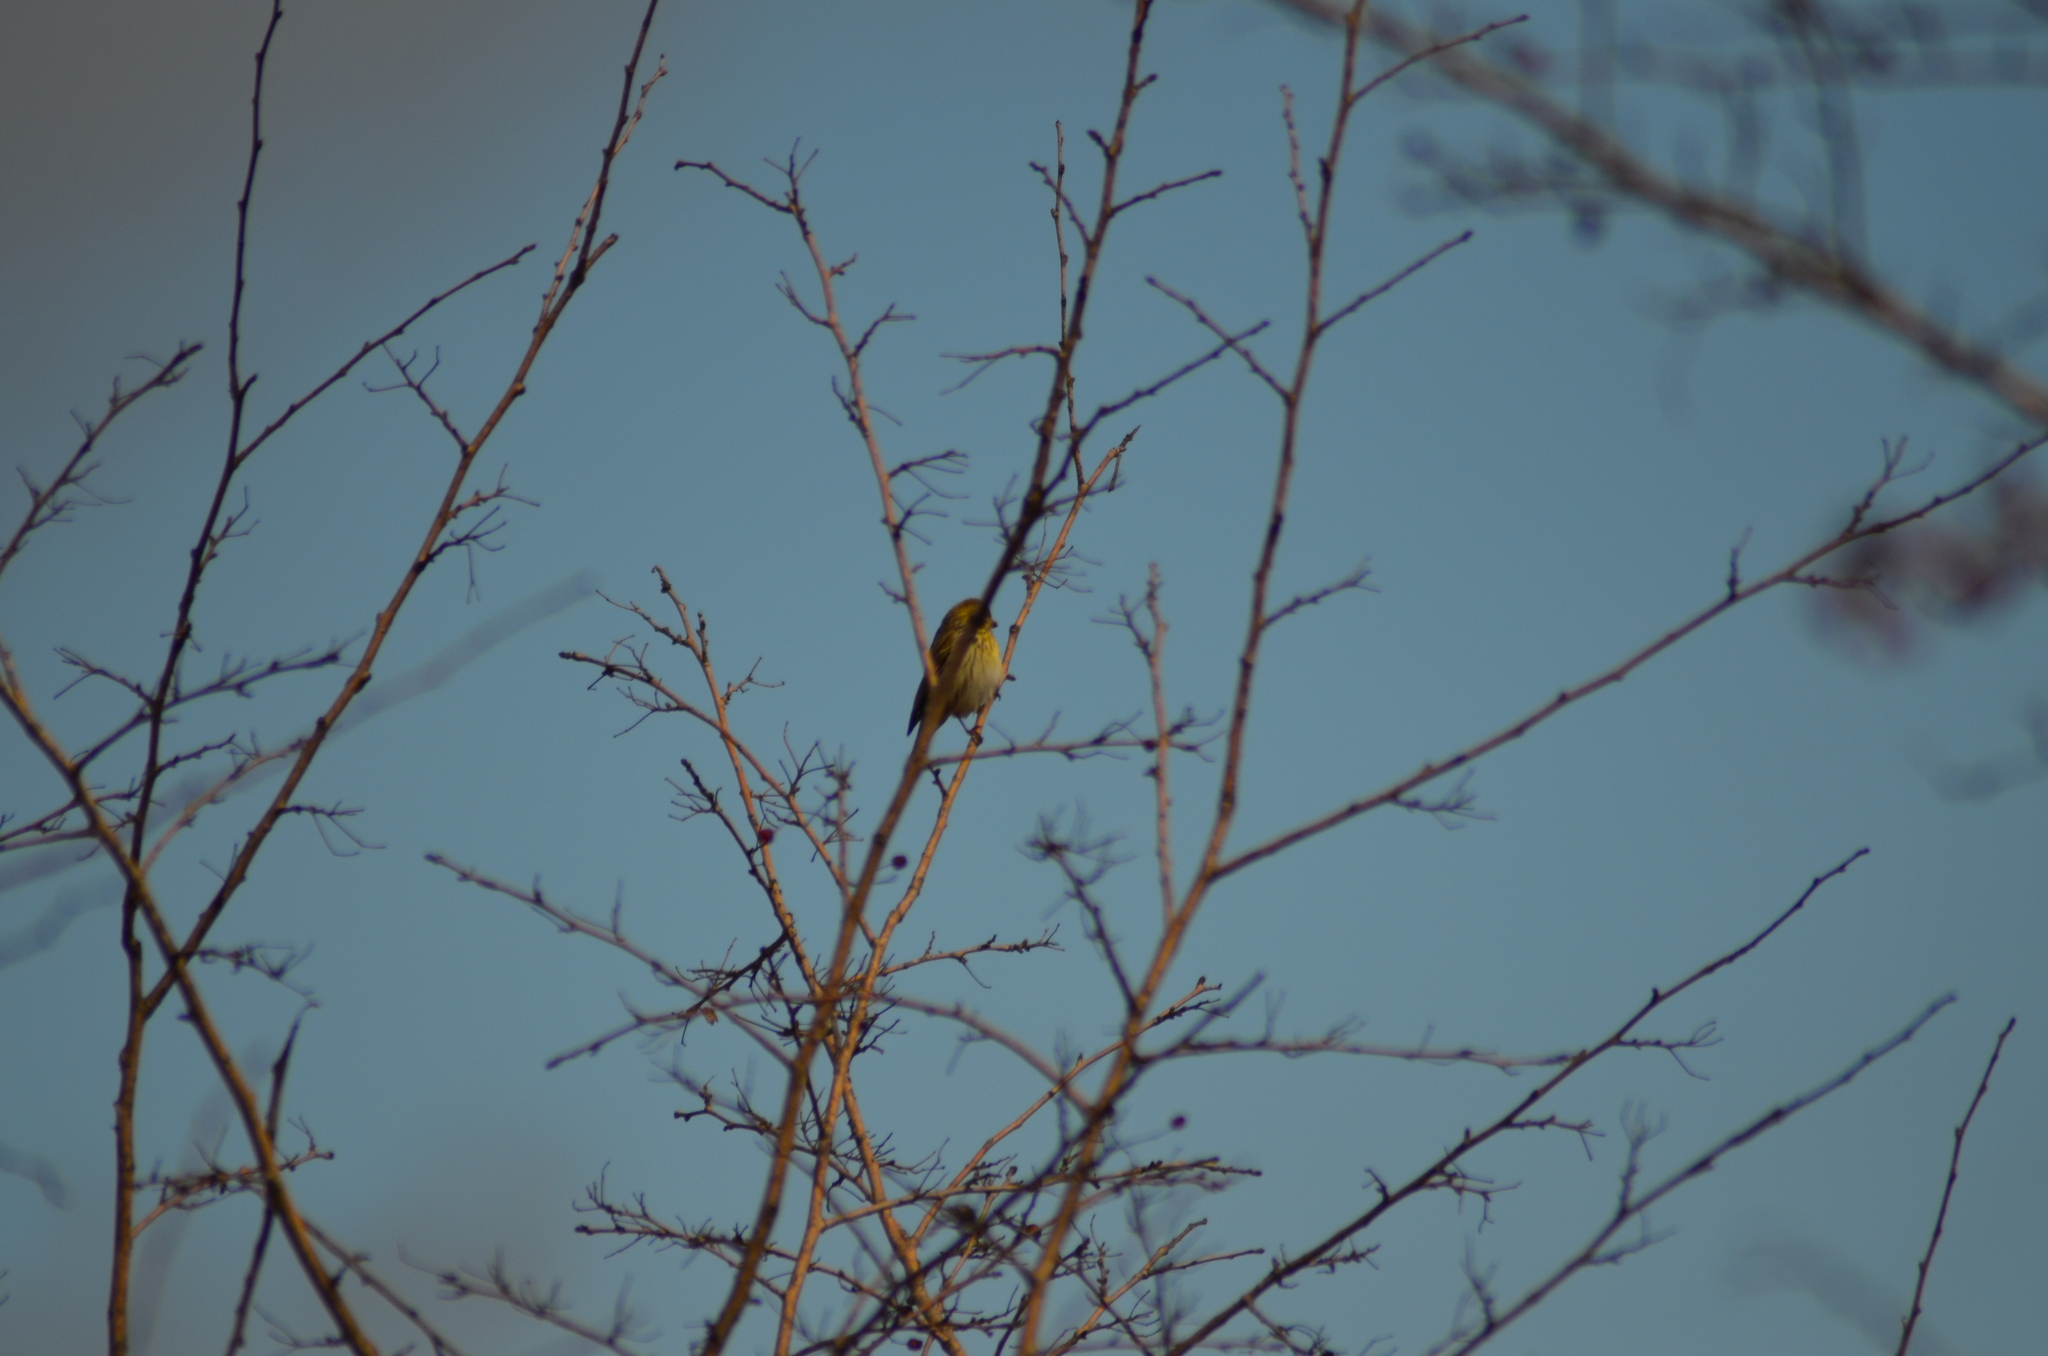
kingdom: Animalia
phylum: Chordata
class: Aves
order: Passeriformes
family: Fringillidae
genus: Serinus
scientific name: Serinus serinus
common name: European serin
